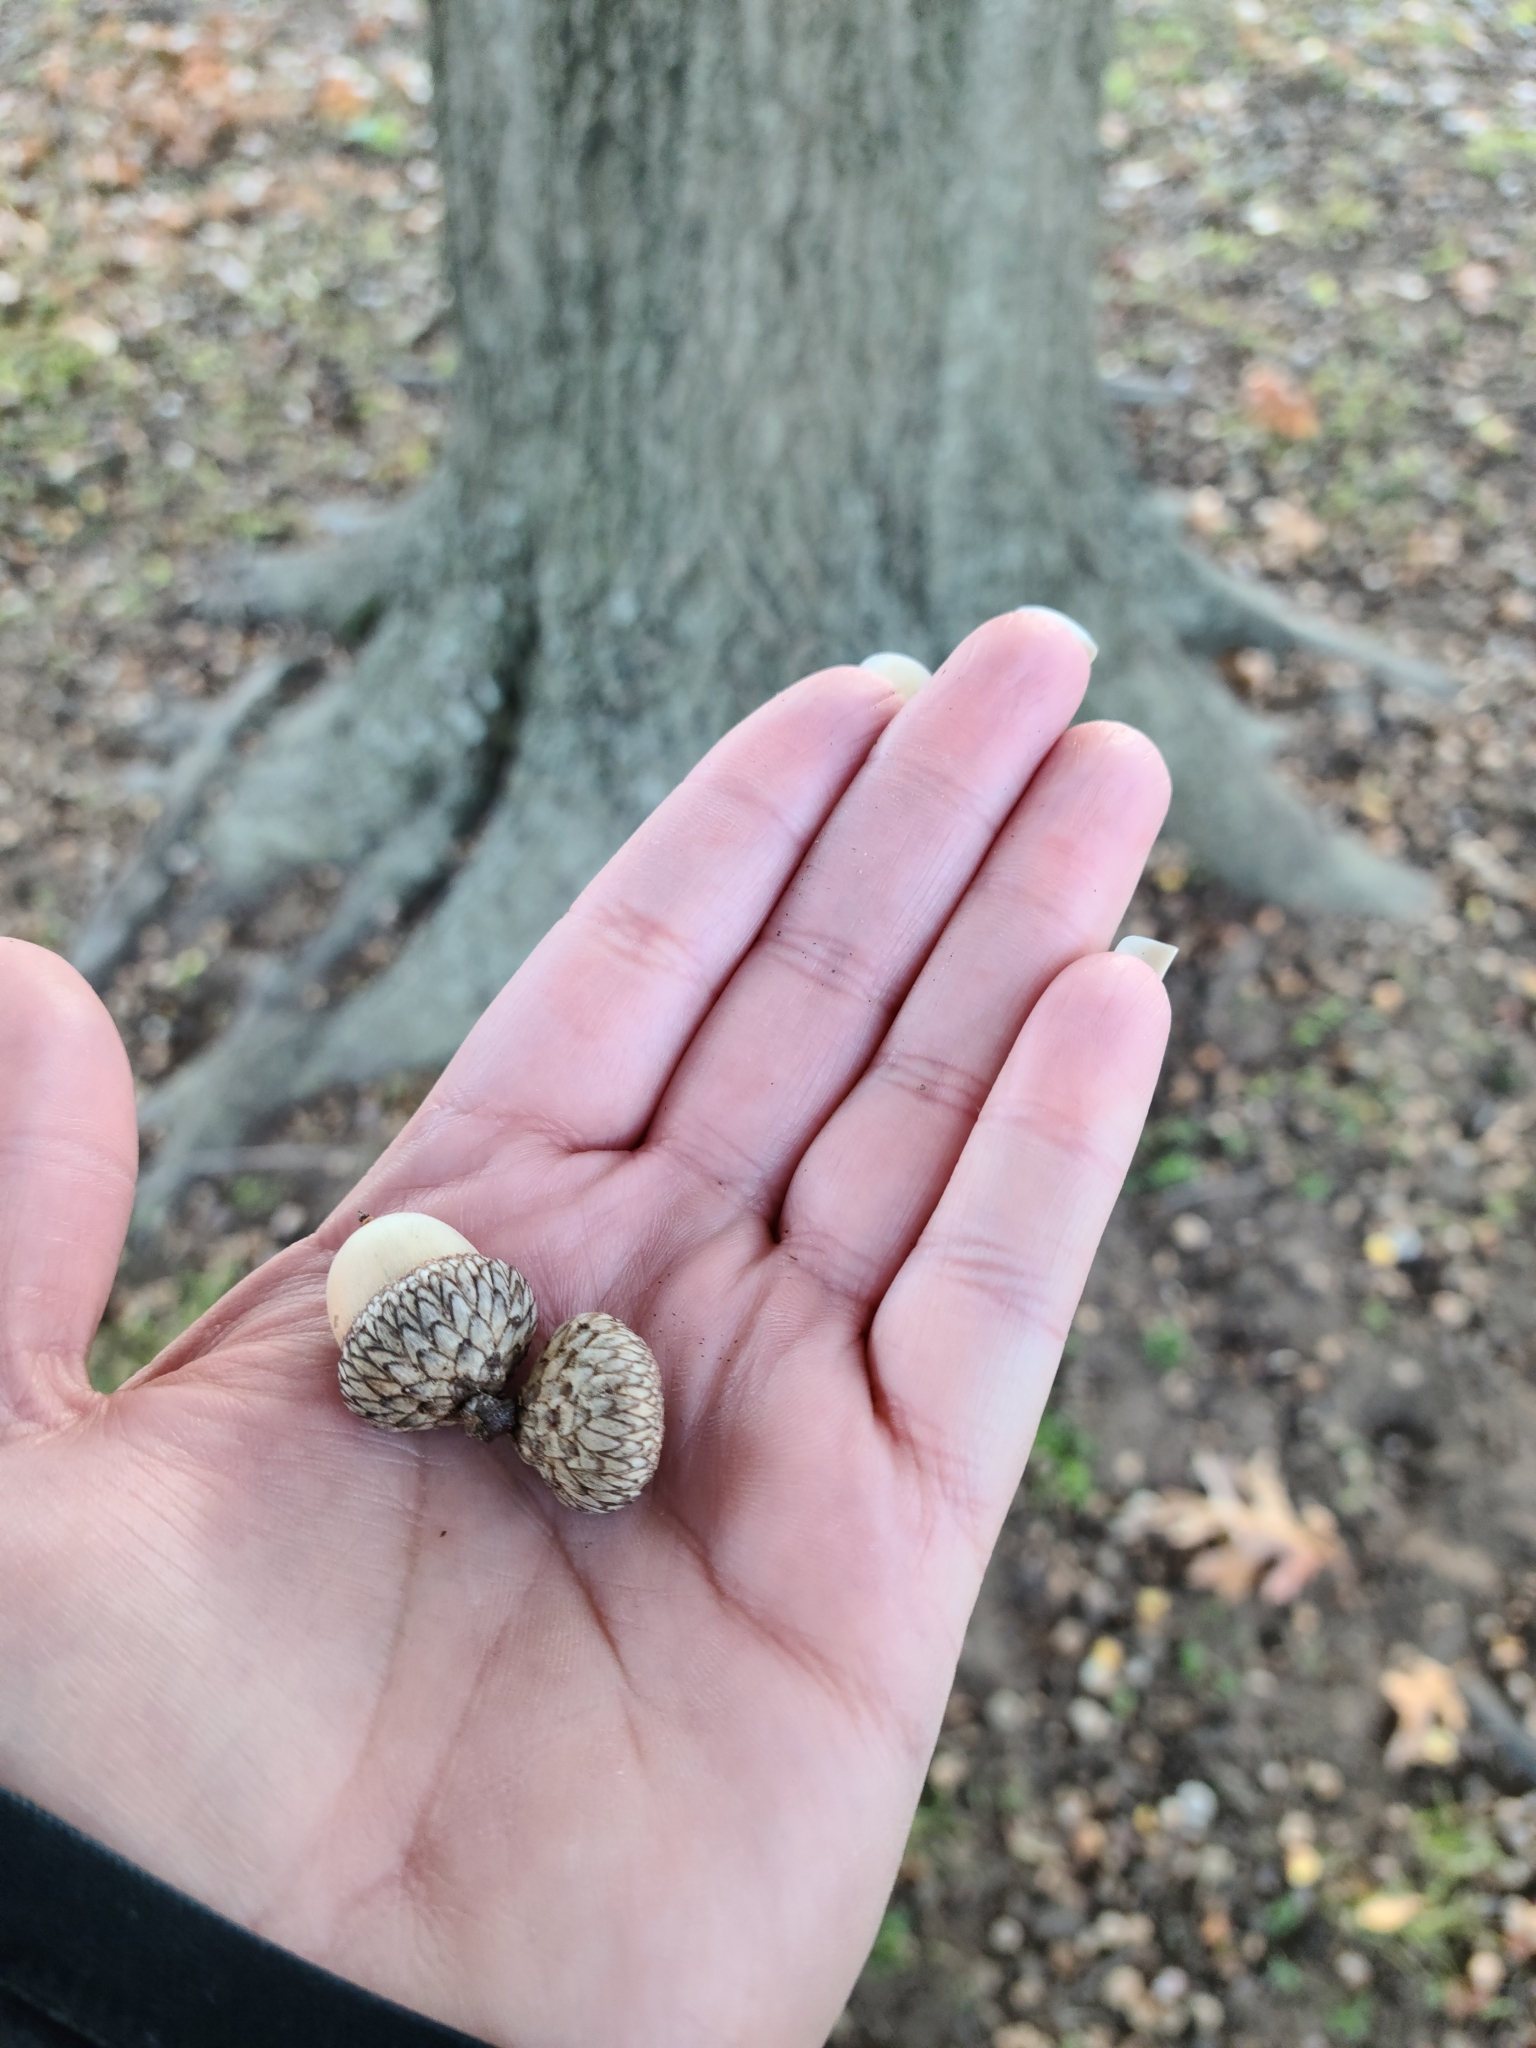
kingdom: Plantae
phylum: Tracheophyta
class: Magnoliopsida
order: Fagales
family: Fagaceae
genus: Quercus
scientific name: Quercus shumardii
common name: Shumard oak
